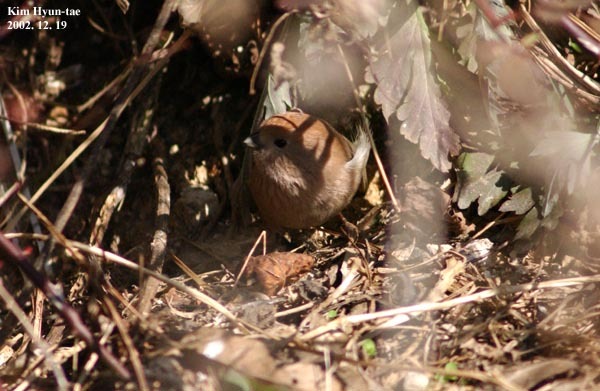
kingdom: Animalia
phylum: Chordata
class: Aves
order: Passeriformes
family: Sylviidae
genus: Sinosuthora
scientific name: Sinosuthora webbiana
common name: Vinous-throated parrotbill
